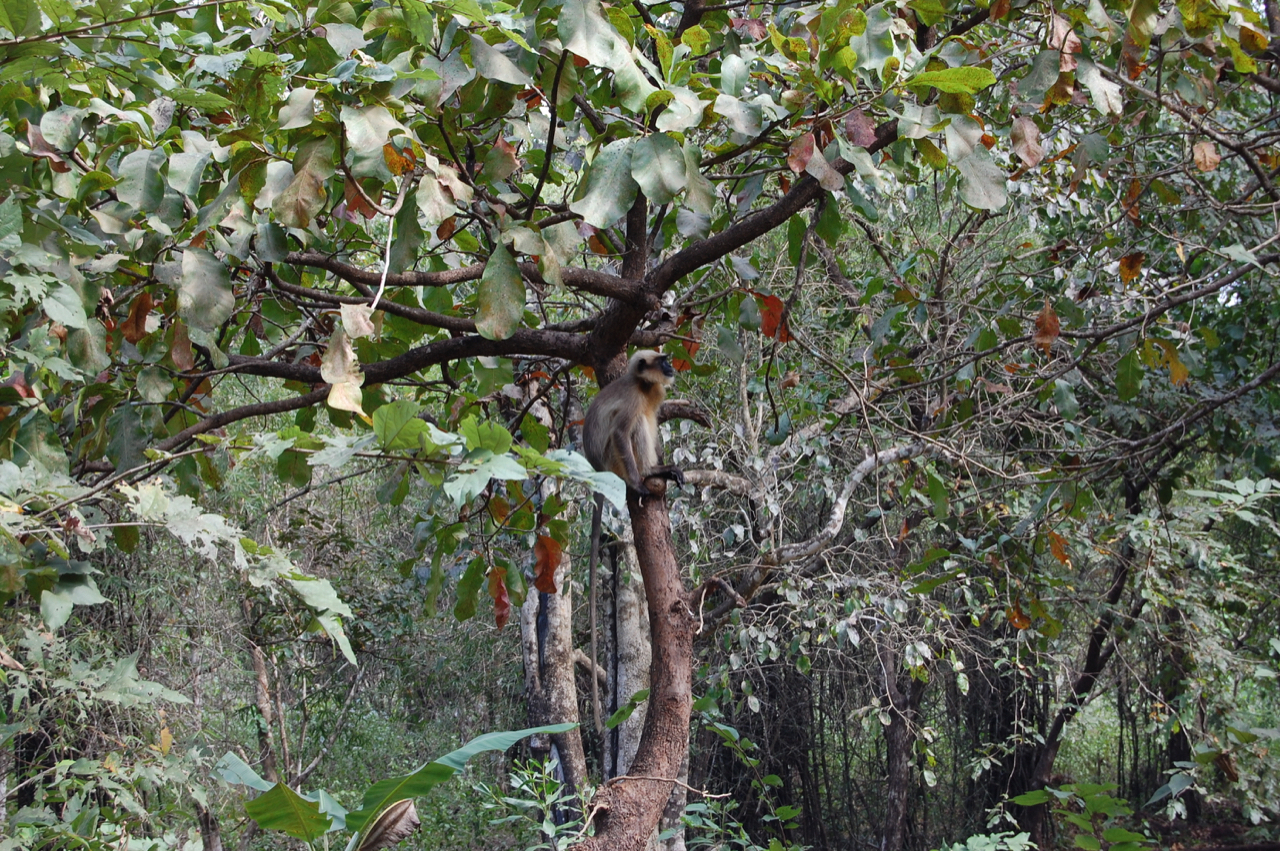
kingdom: Animalia
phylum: Chordata
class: Mammalia
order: Primates
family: Cercopithecidae
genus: Semnopithecus
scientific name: Semnopithecus hypoleucos
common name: Black-footed gray langur
